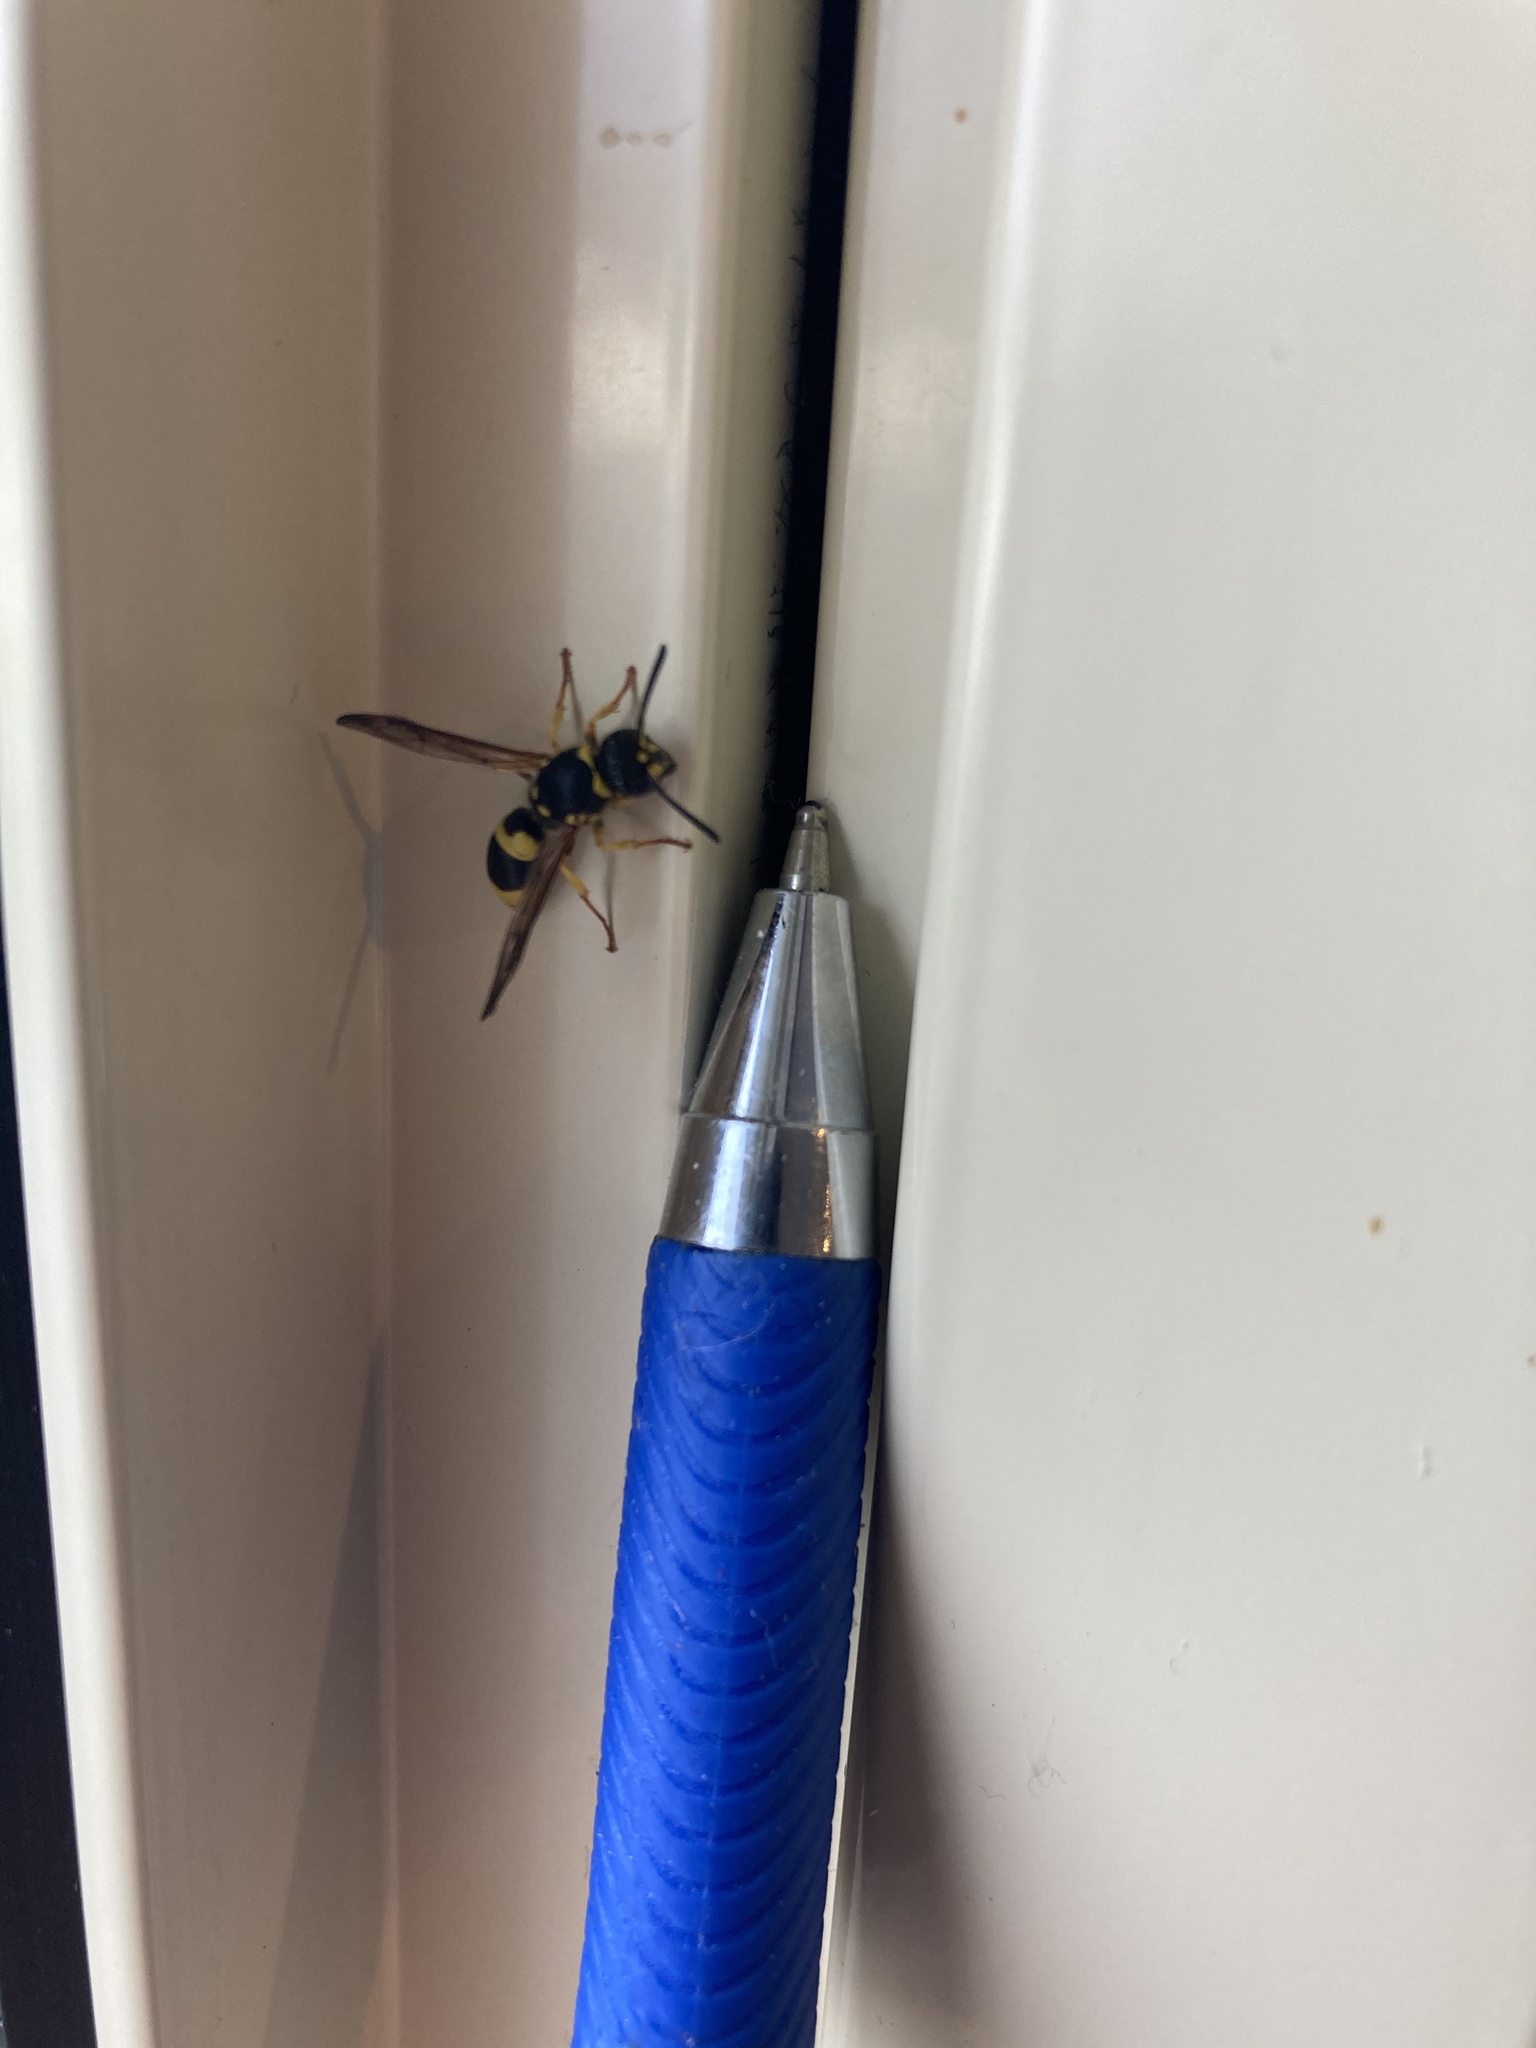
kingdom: Animalia
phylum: Arthropoda
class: Insecta
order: Hymenoptera
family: Vespidae
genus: Ancistrocerus
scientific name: Ancistrocerus gazella
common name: European tube wasp
